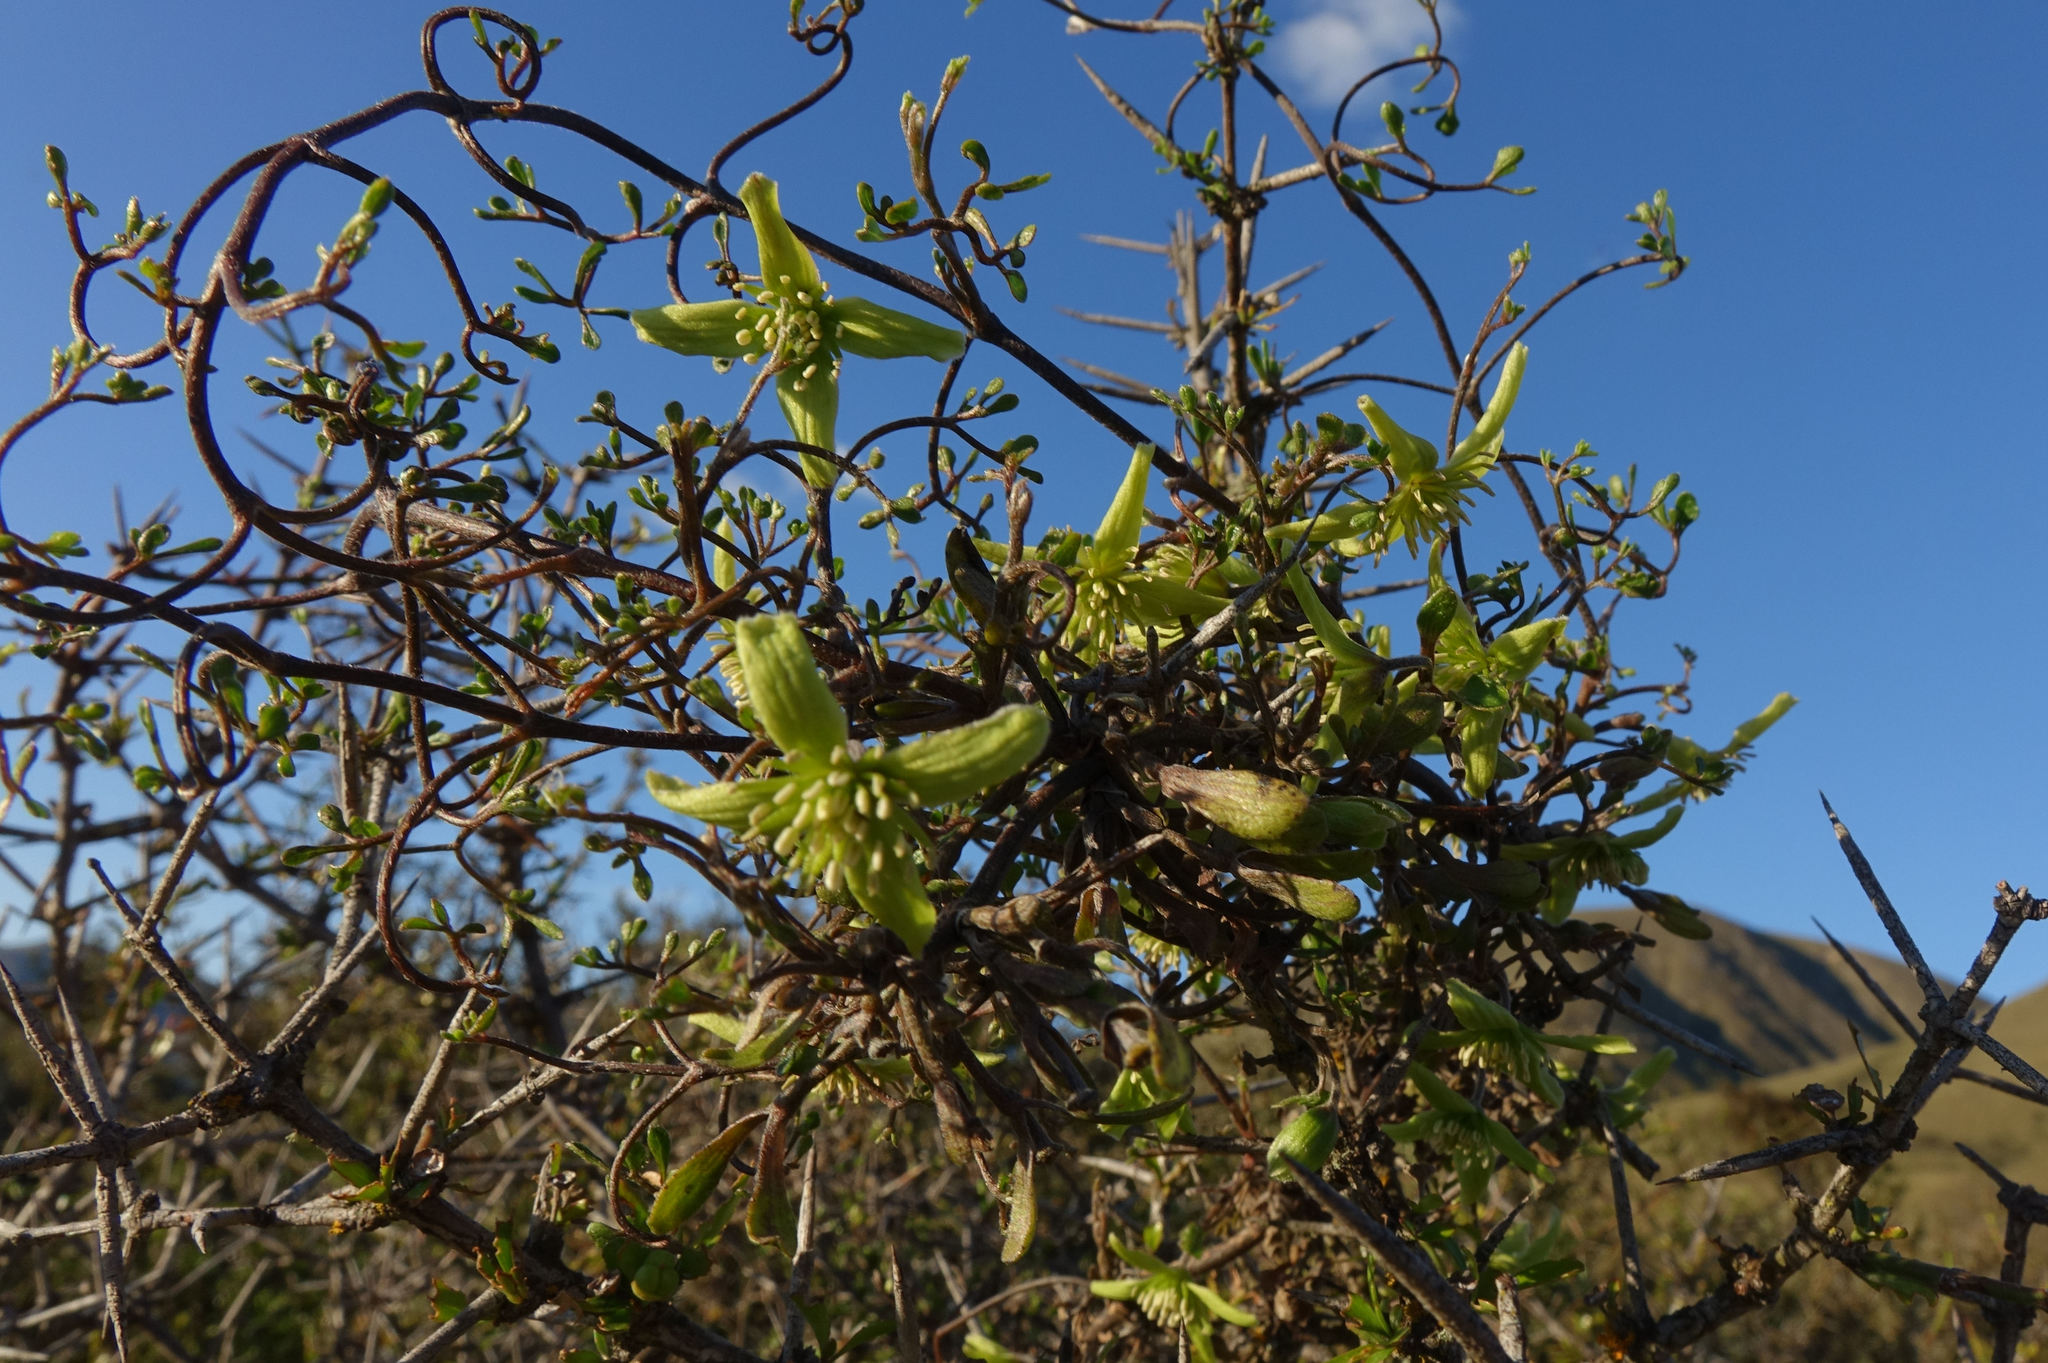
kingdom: Plantae
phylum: Tracheophyta
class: Magnoliopsida
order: Ranunculales
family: Ranunculaceae
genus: Clematis
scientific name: Clematis marata
